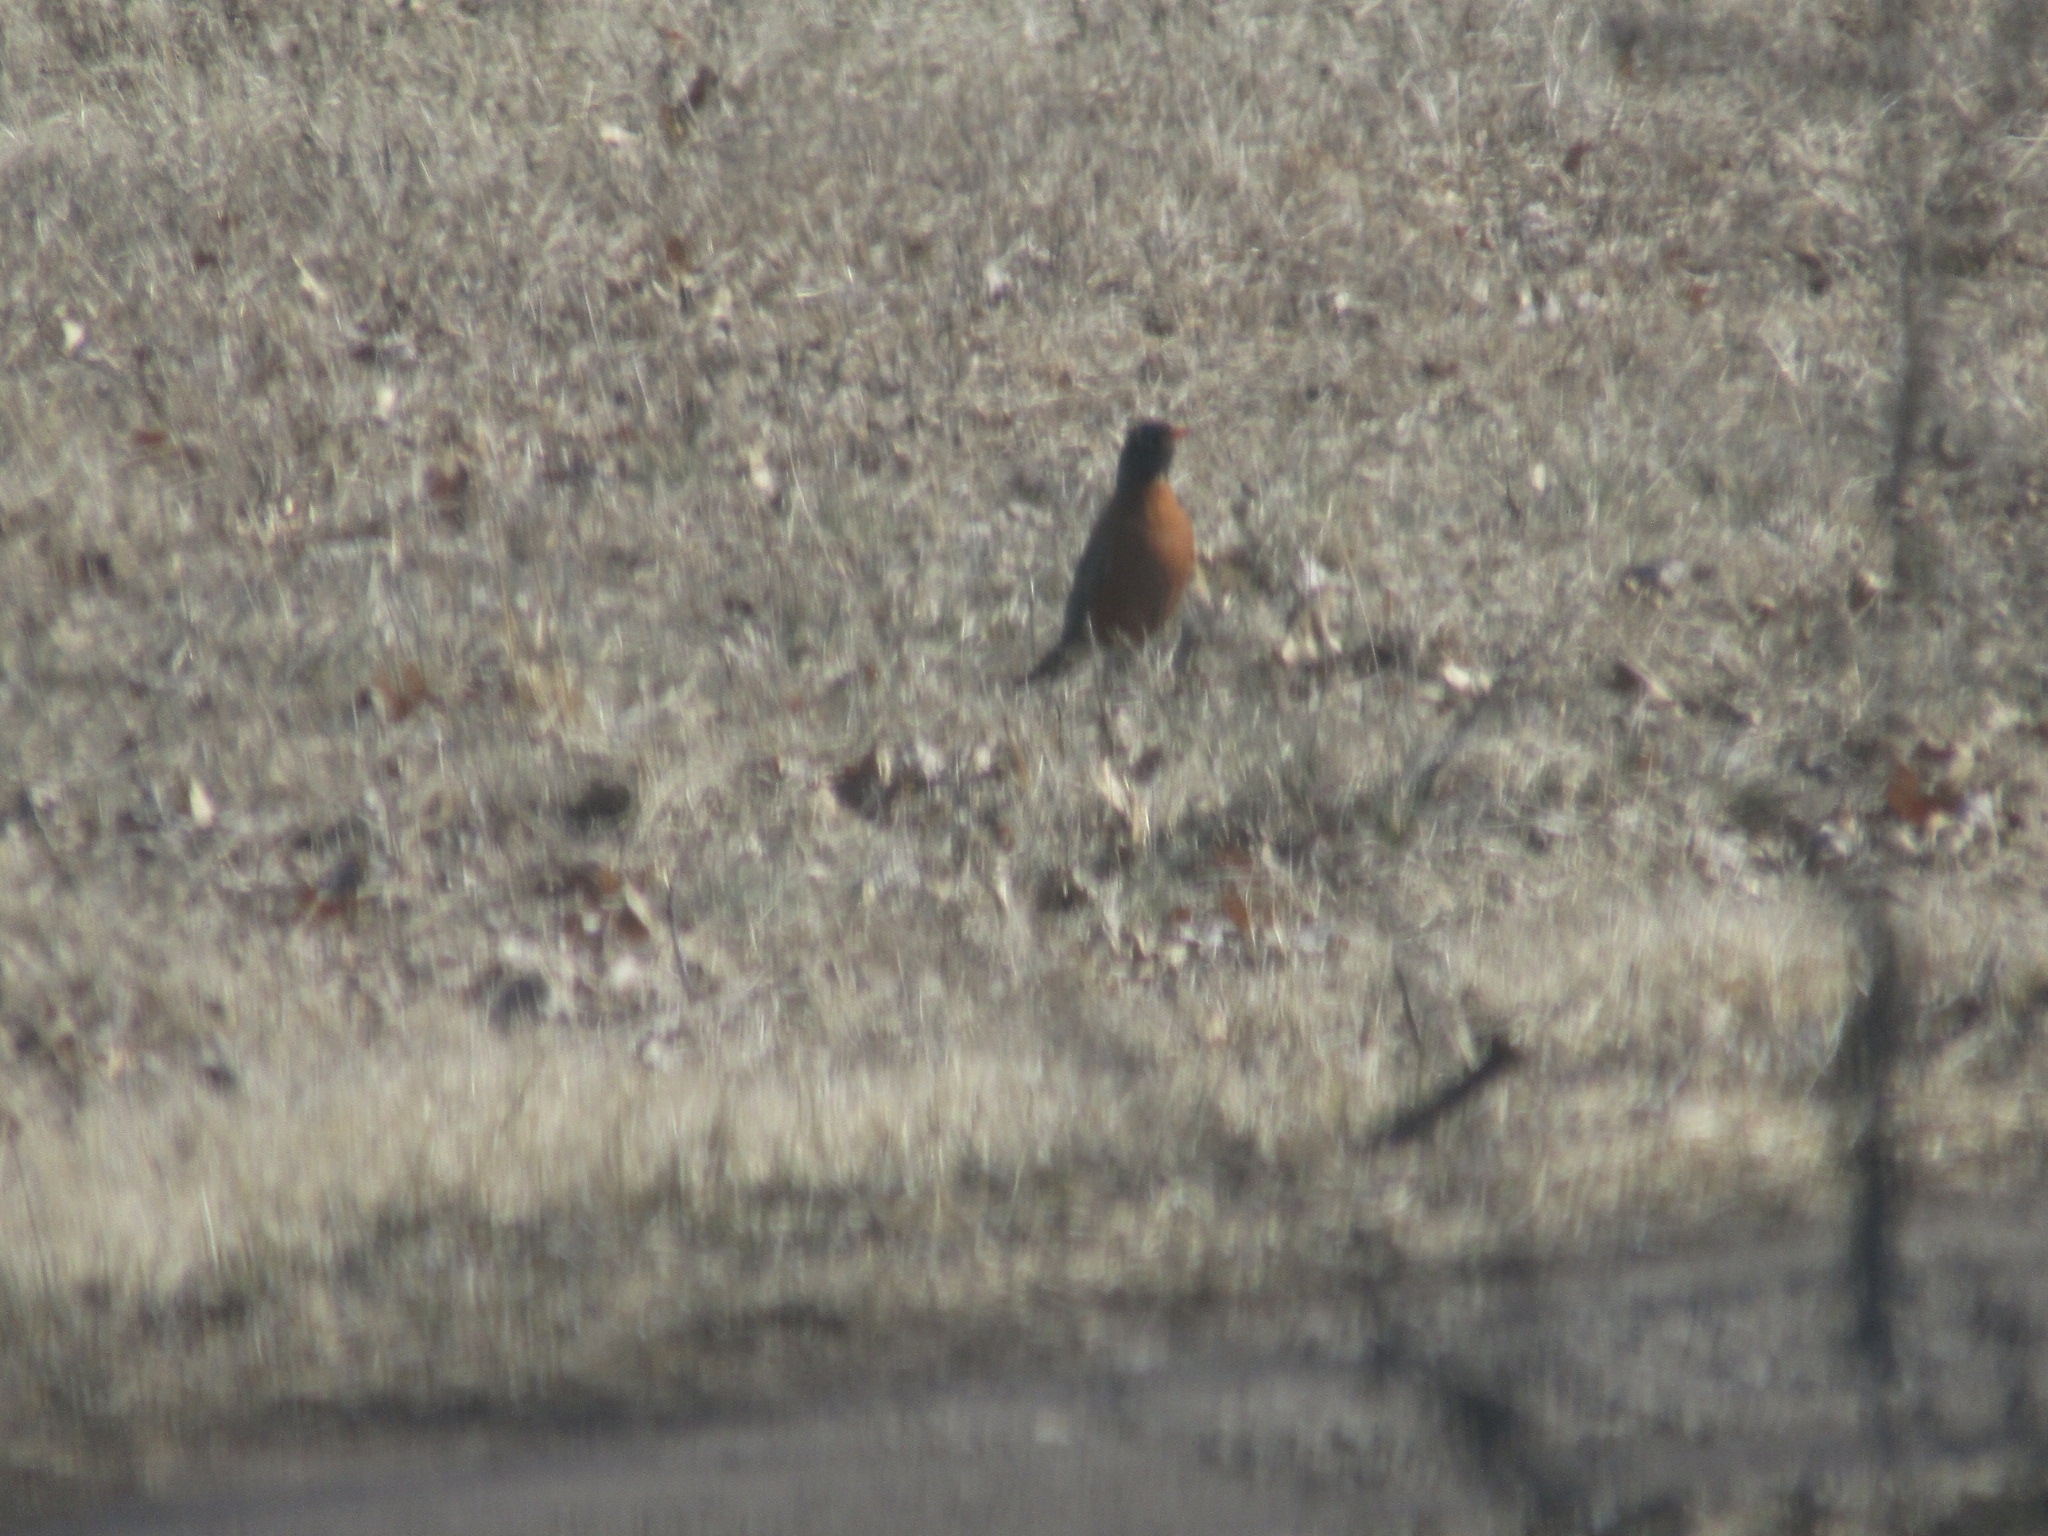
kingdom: Animalia
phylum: Chordata
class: Aves
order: Passeriformes
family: Turdidae
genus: Turdus
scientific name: Turdus migratorius
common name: American robin
